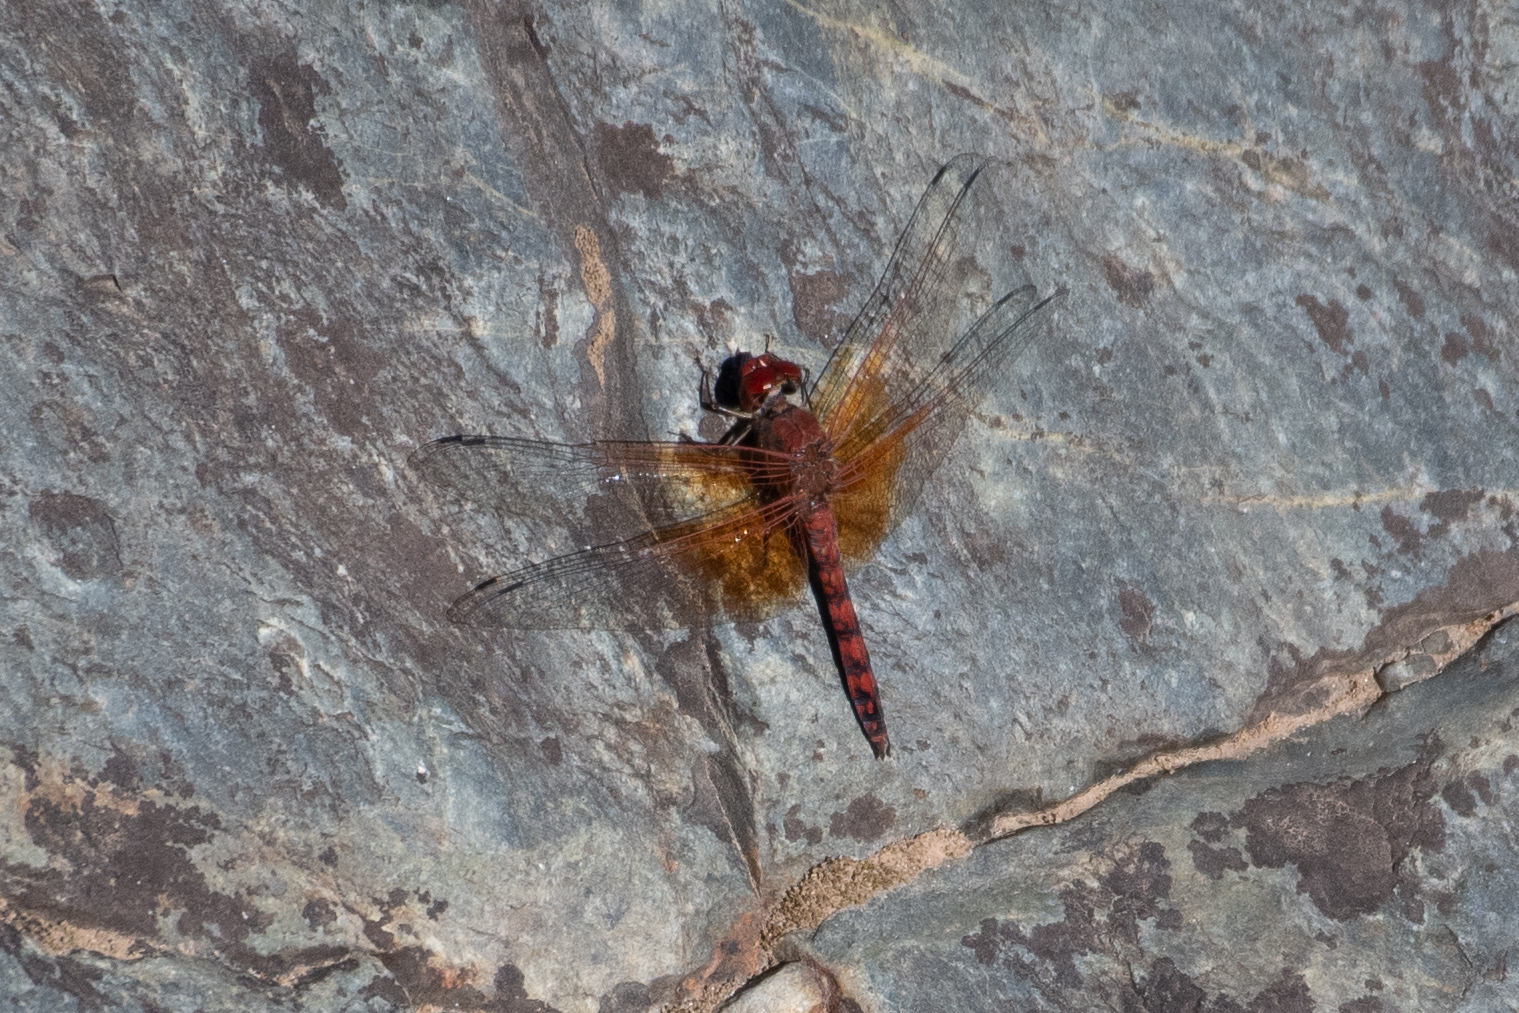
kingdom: Animalia
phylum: Arthropoda
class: Insecta
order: Odonata
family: Libellulidae
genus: Paltothemis
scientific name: Paltothemis lineatipes
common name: Red rock skimmer
